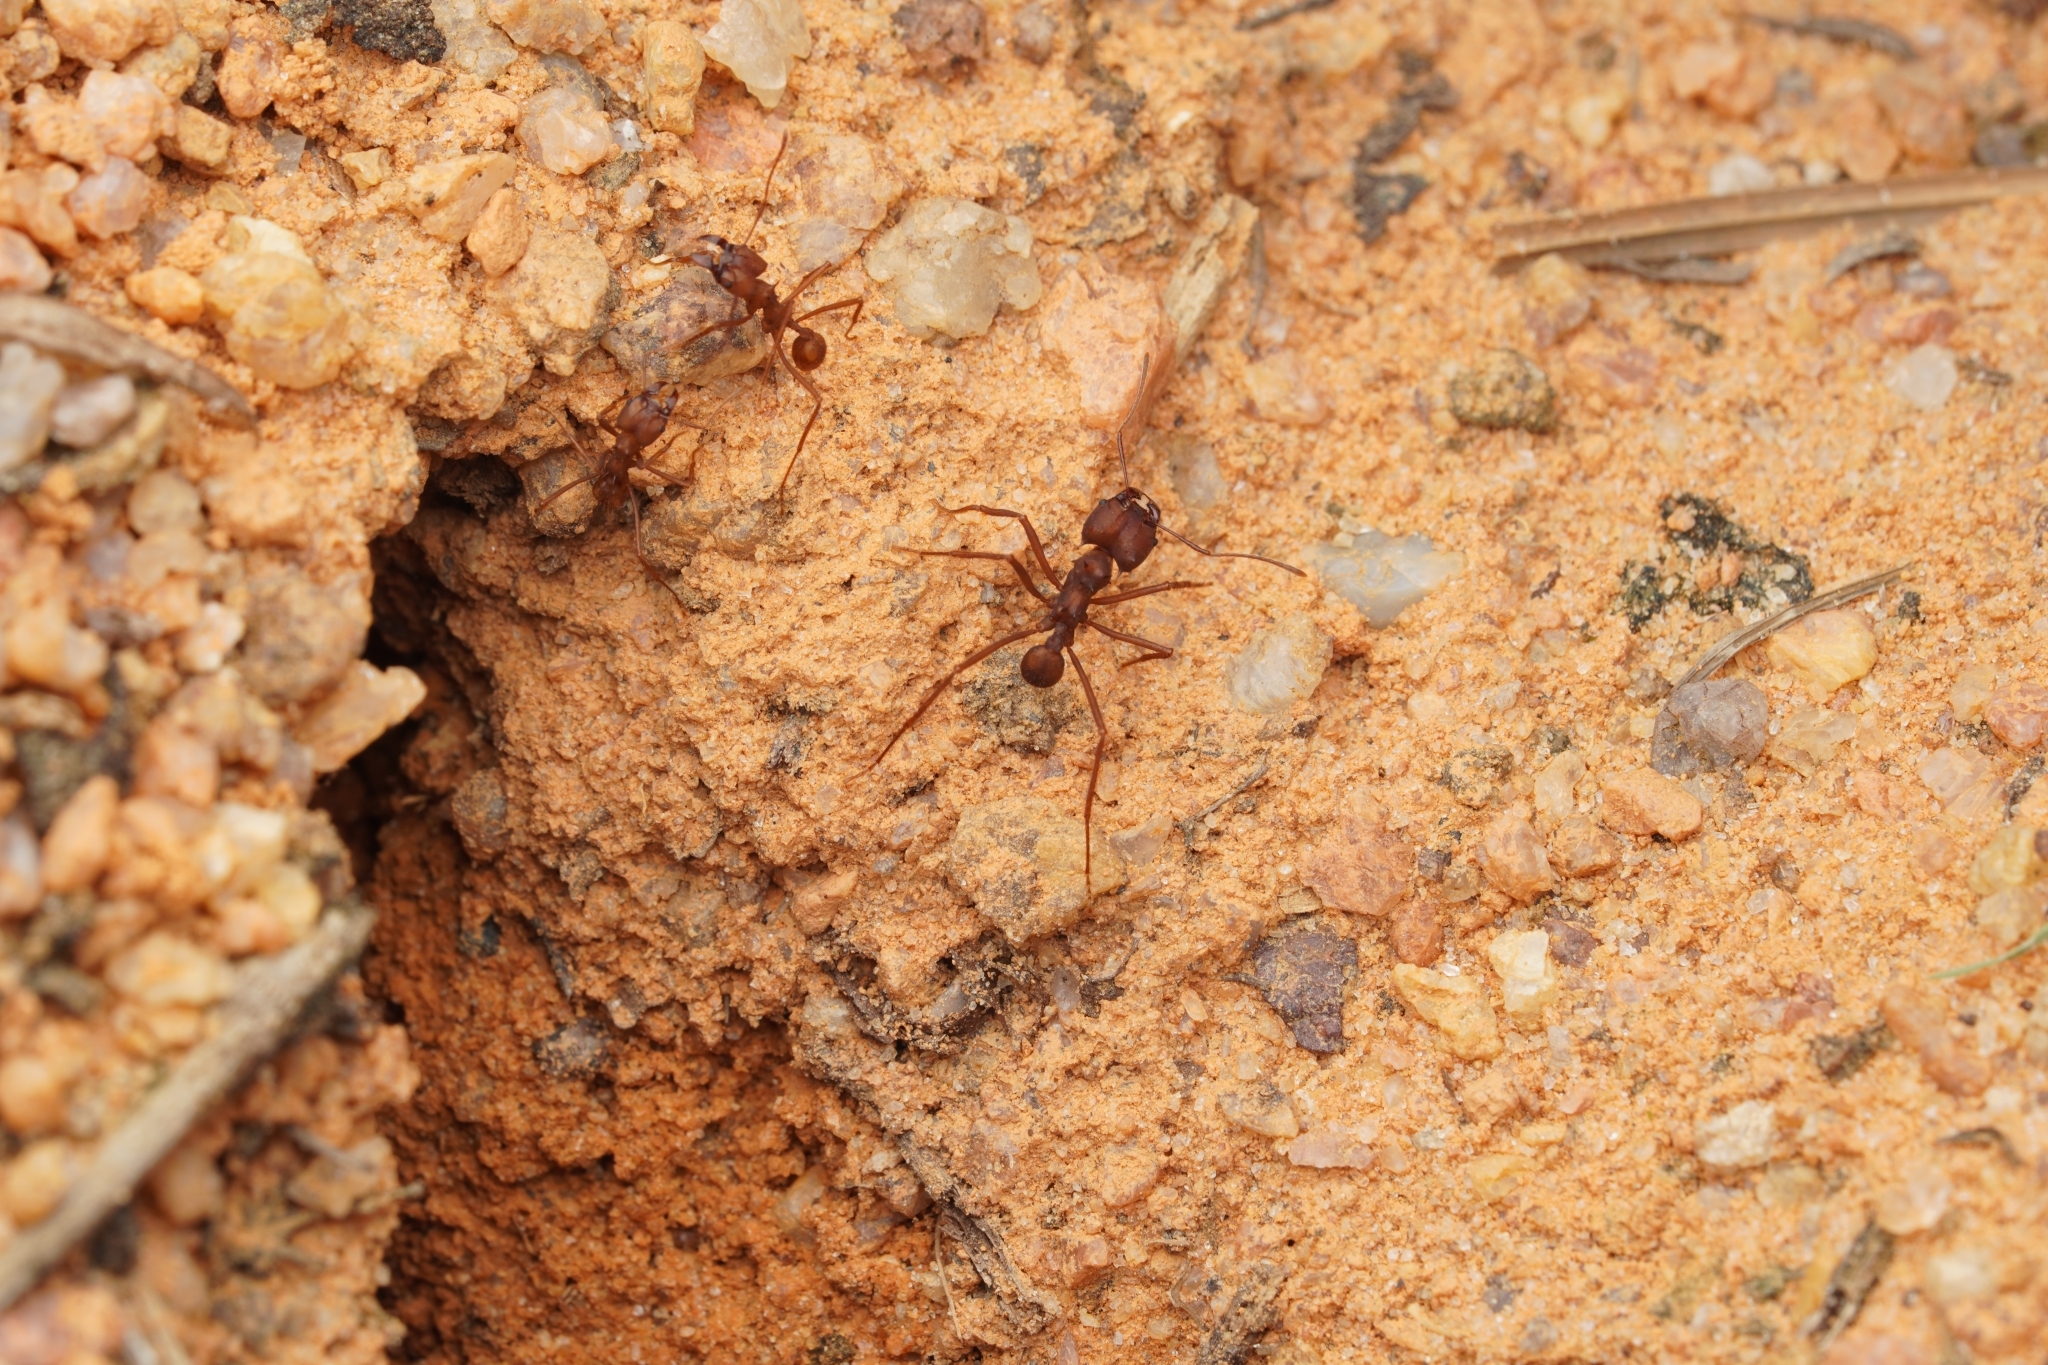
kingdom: Animalia
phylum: Arthropoda
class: Insecta
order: Hymenoptera
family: Formicidae
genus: Atta
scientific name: Atta sexdens
